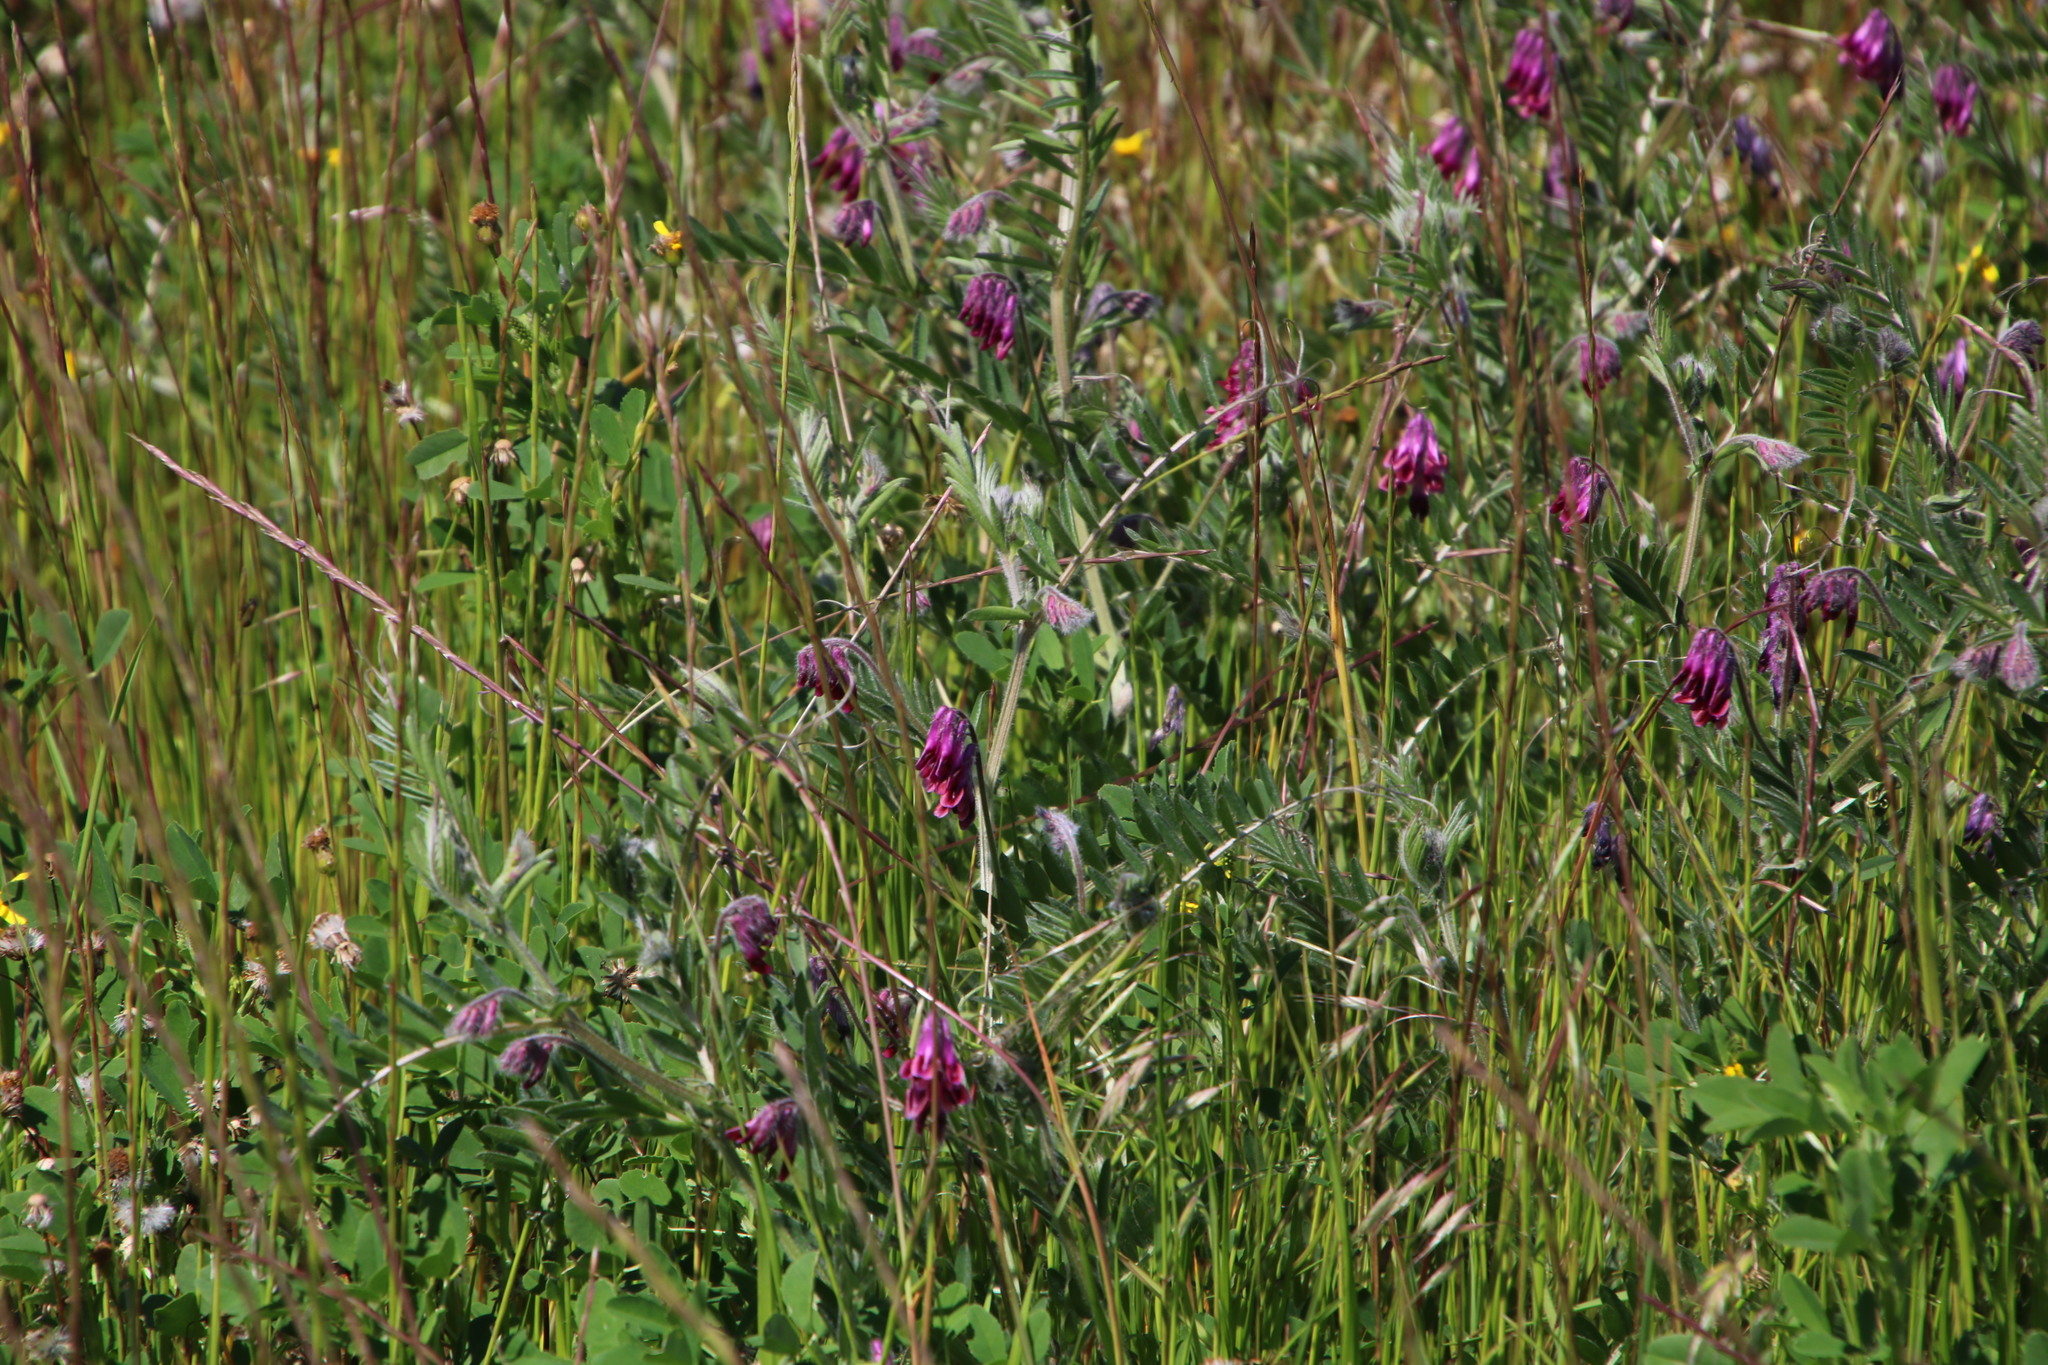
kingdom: Plantae
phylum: Tracheophyta
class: Magnoliopsida
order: Fabales
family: Fabaceae
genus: Vicia
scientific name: Vicia benghalensis
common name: Purple vetch
